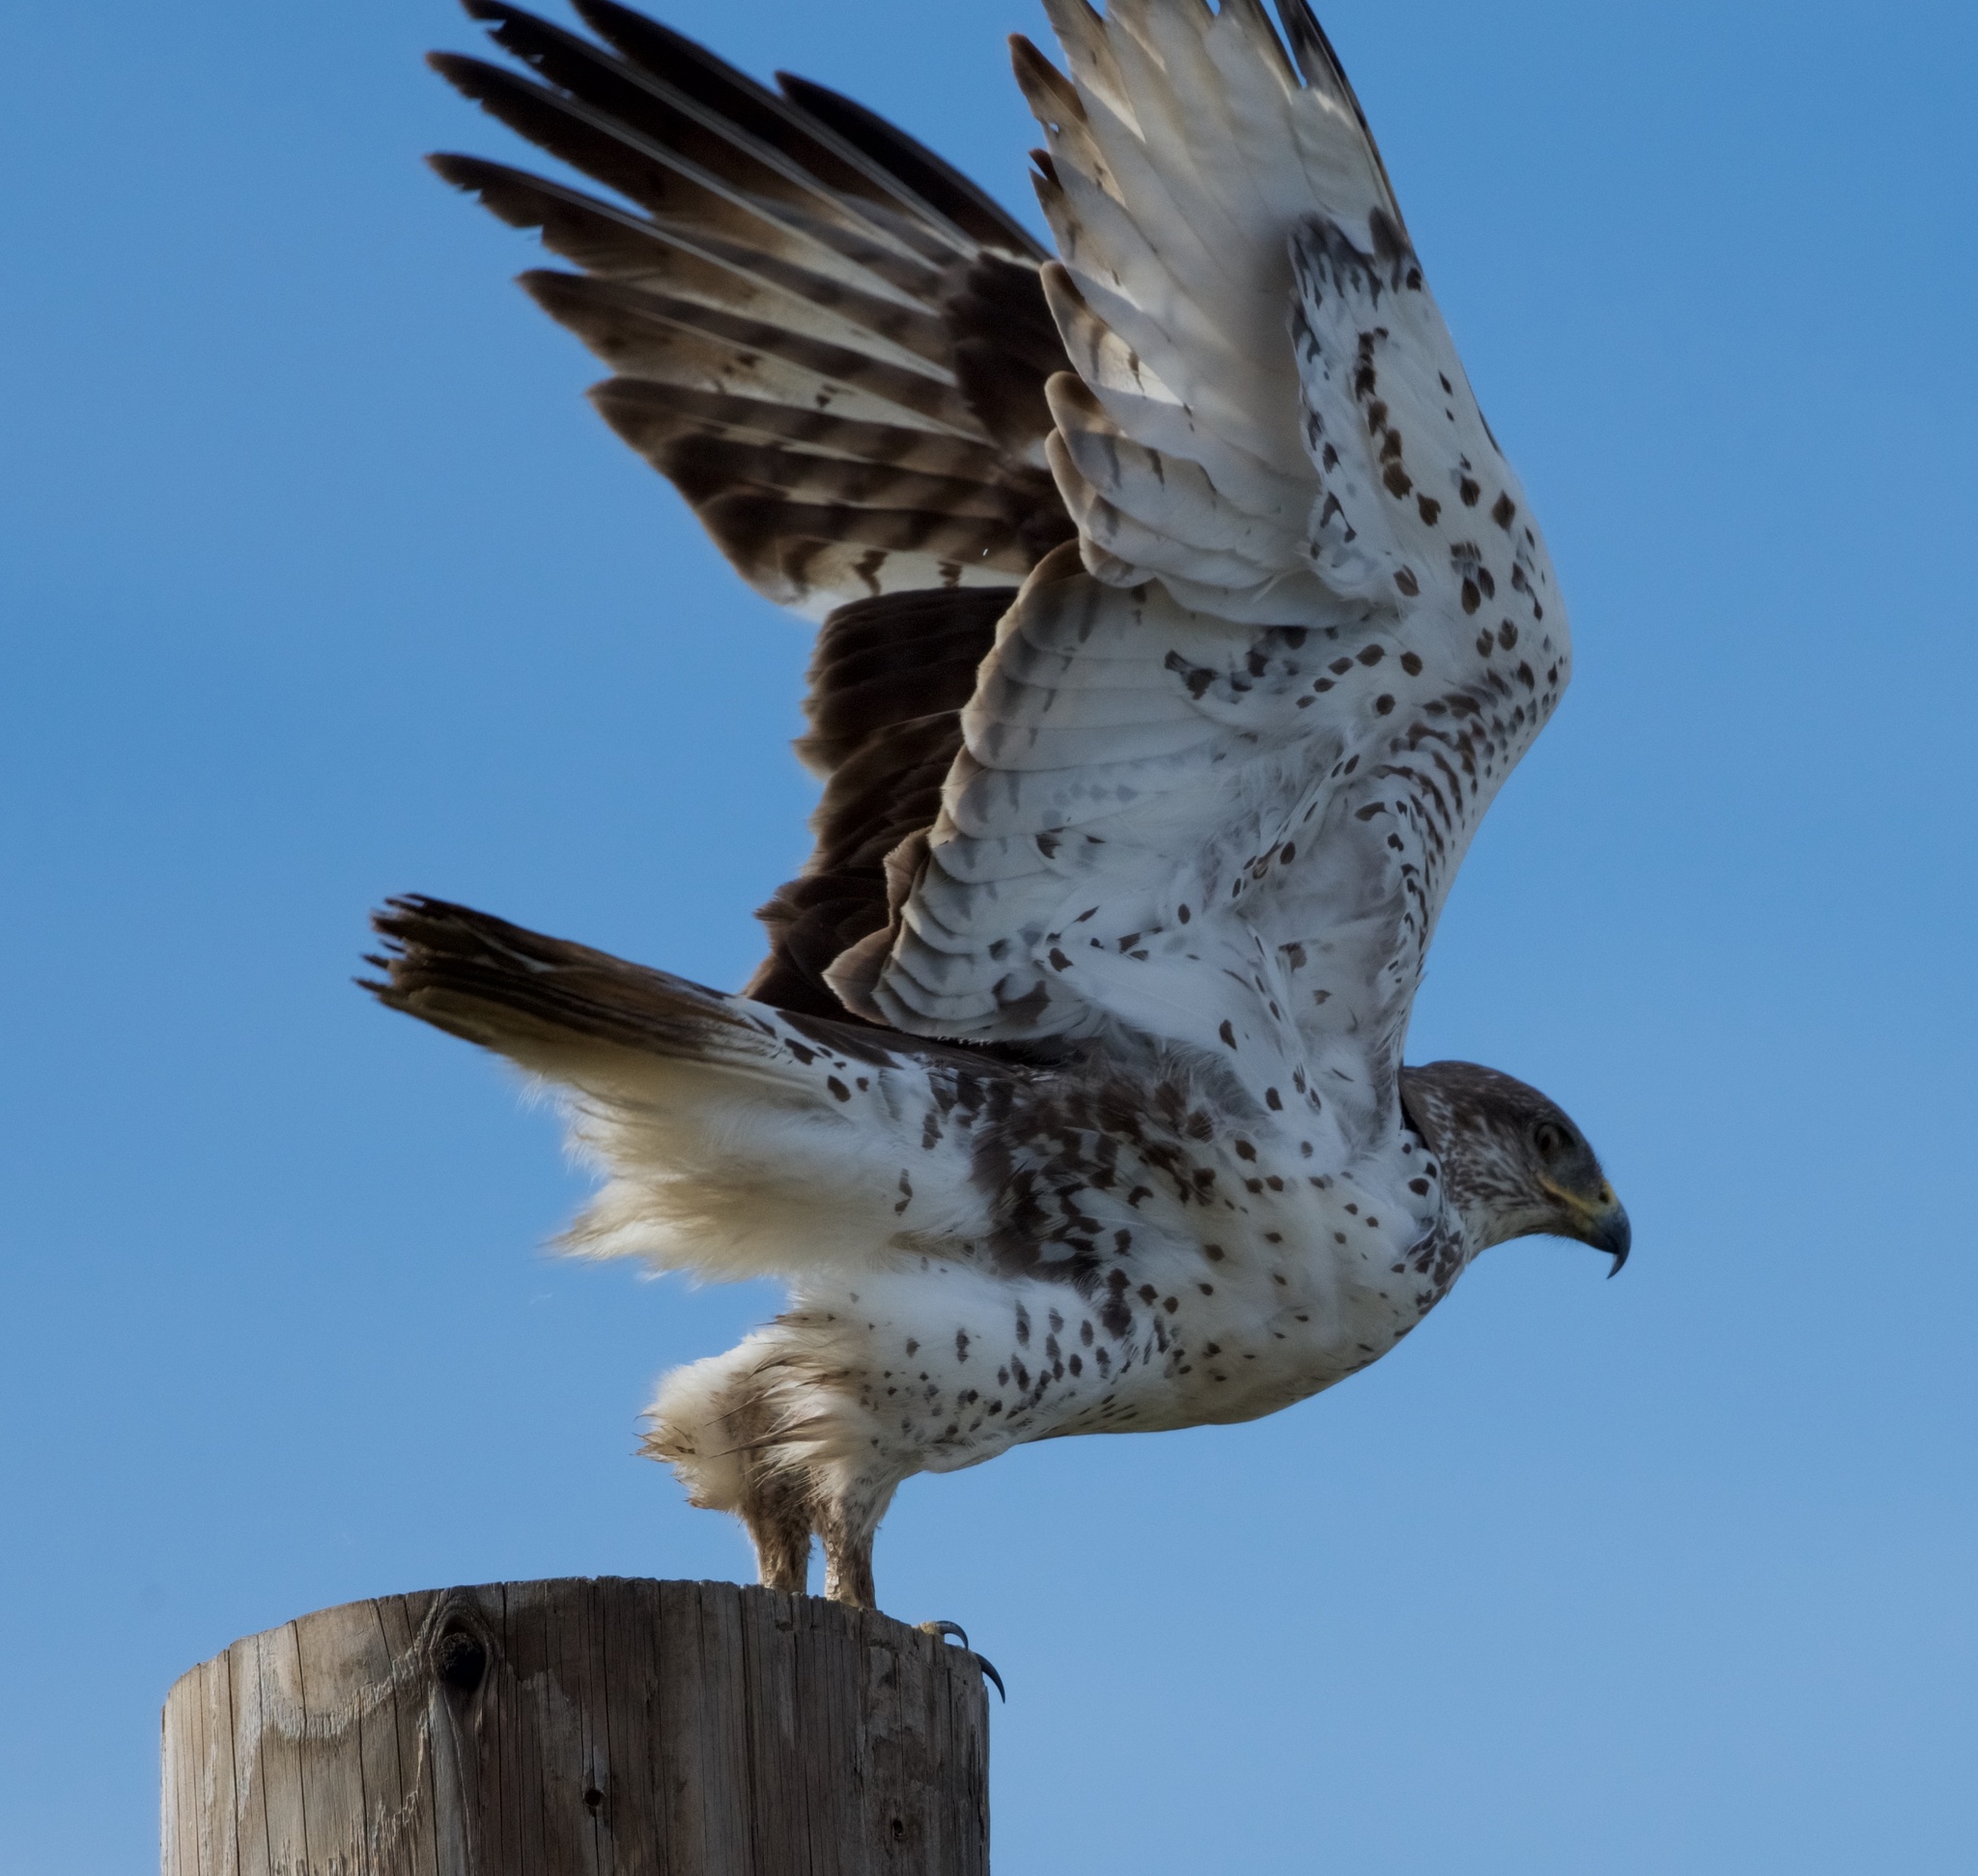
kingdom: Animalia
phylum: Chordata
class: Aves
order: Accipitriformes
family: Accipitridae
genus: Buteo
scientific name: Buteo regalis
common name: Ferruginous hawk
